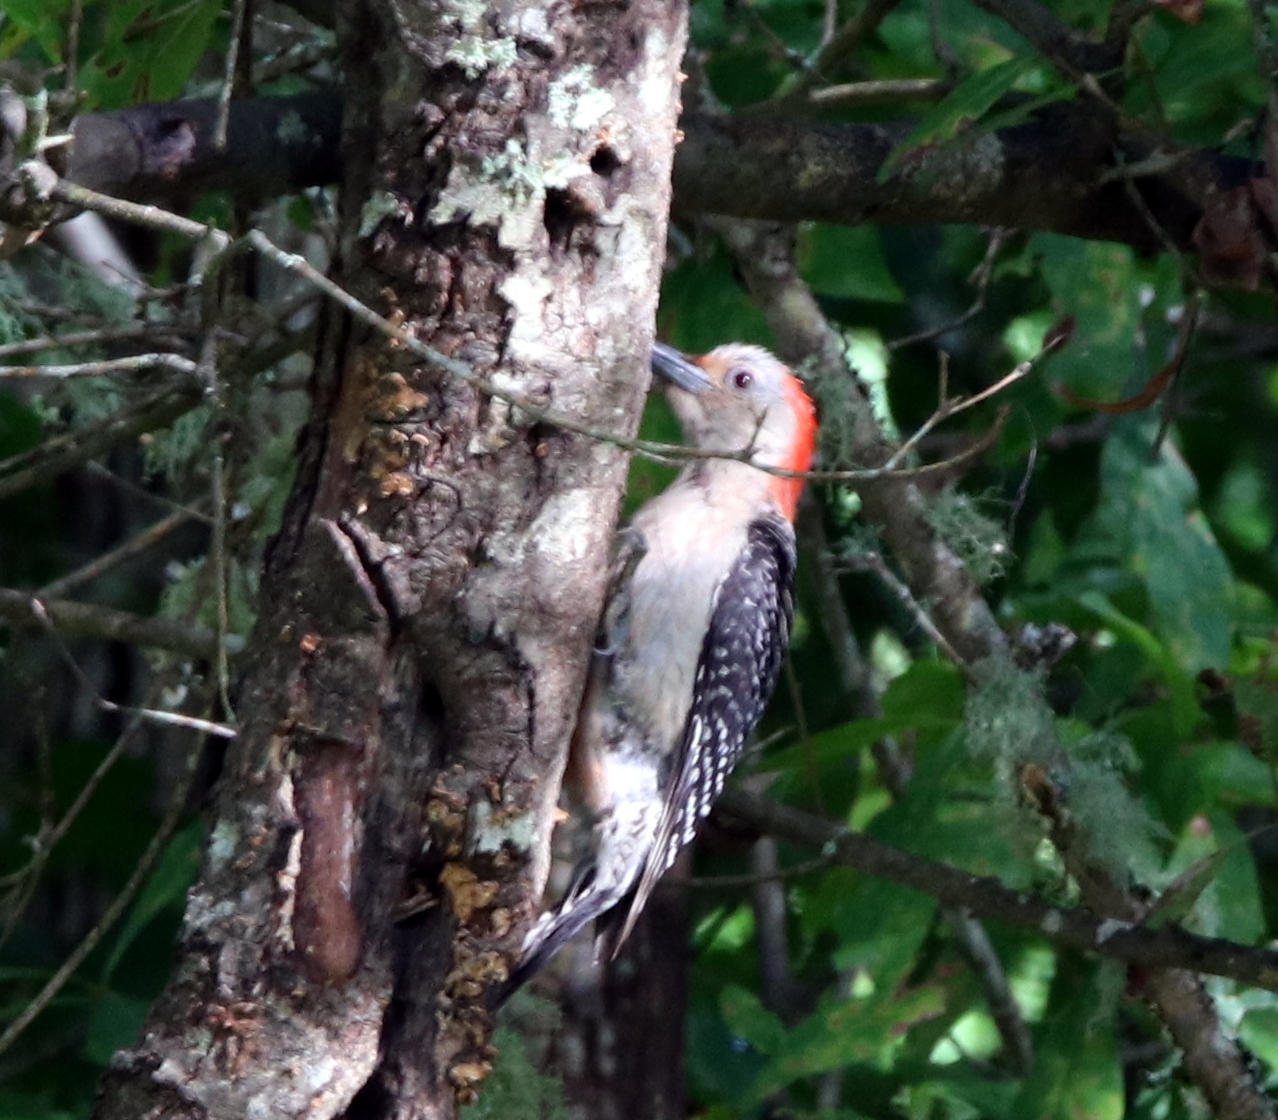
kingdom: Animalia
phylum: Chordata
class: Aves
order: Piciformes
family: Picidae
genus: Melanerpes
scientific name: Melanerpes carolinus
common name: Red-bellied woodpecker
